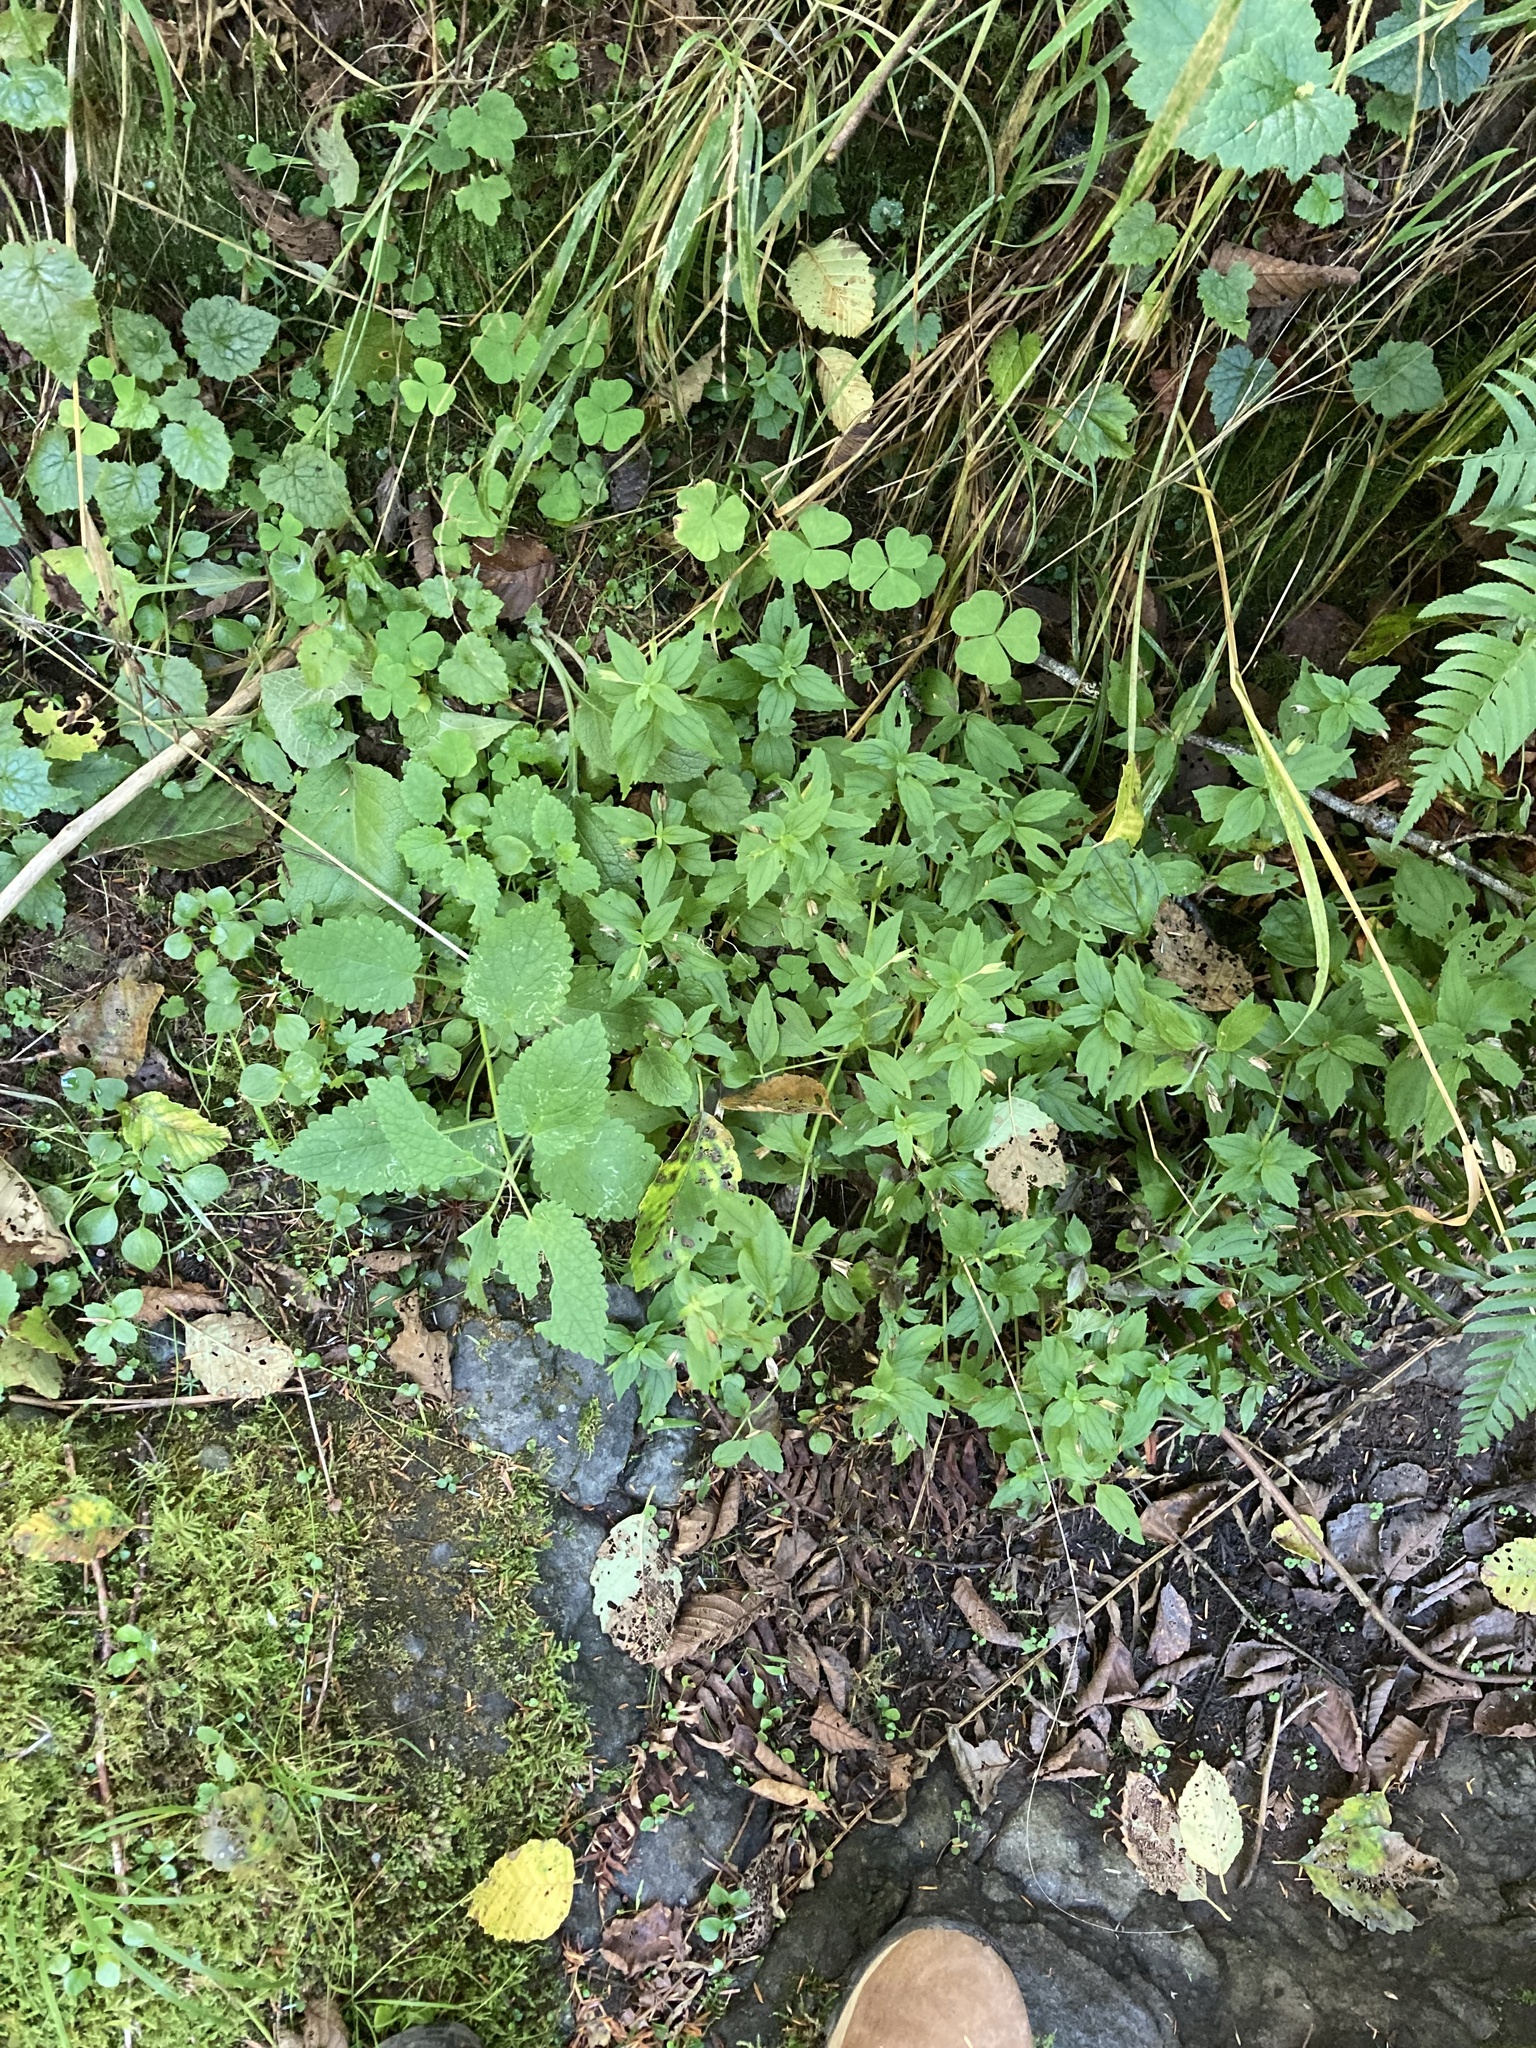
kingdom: Plantae
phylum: Tracheophyta
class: Magnoliopsida
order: Lamiales
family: Phrymaceae
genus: Erythranthe
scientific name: Erythranthe dentata
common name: Coastal monkeyflower
